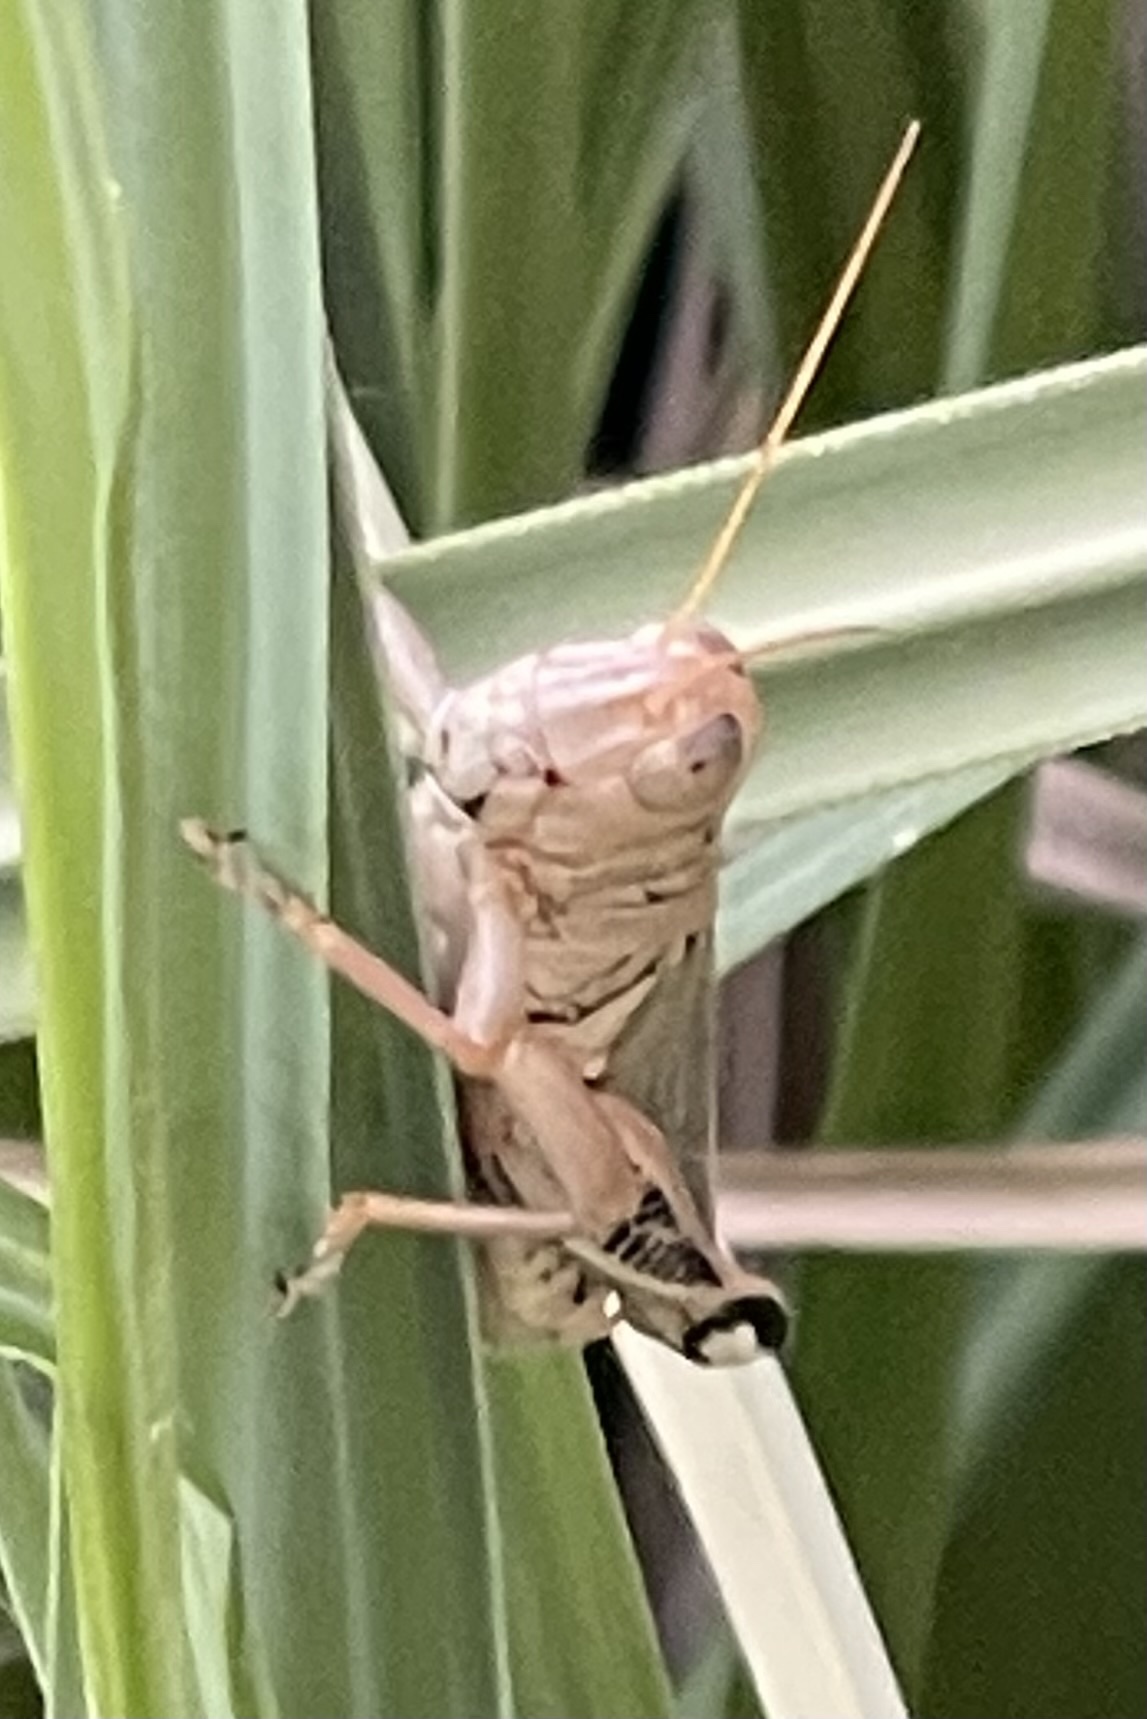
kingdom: Animalia
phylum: Arthropoda
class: Insecta
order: Orthoptera
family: Acrididae
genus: Melanoplus
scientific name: Melanoplus differentialis
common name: Differential grasshopper
